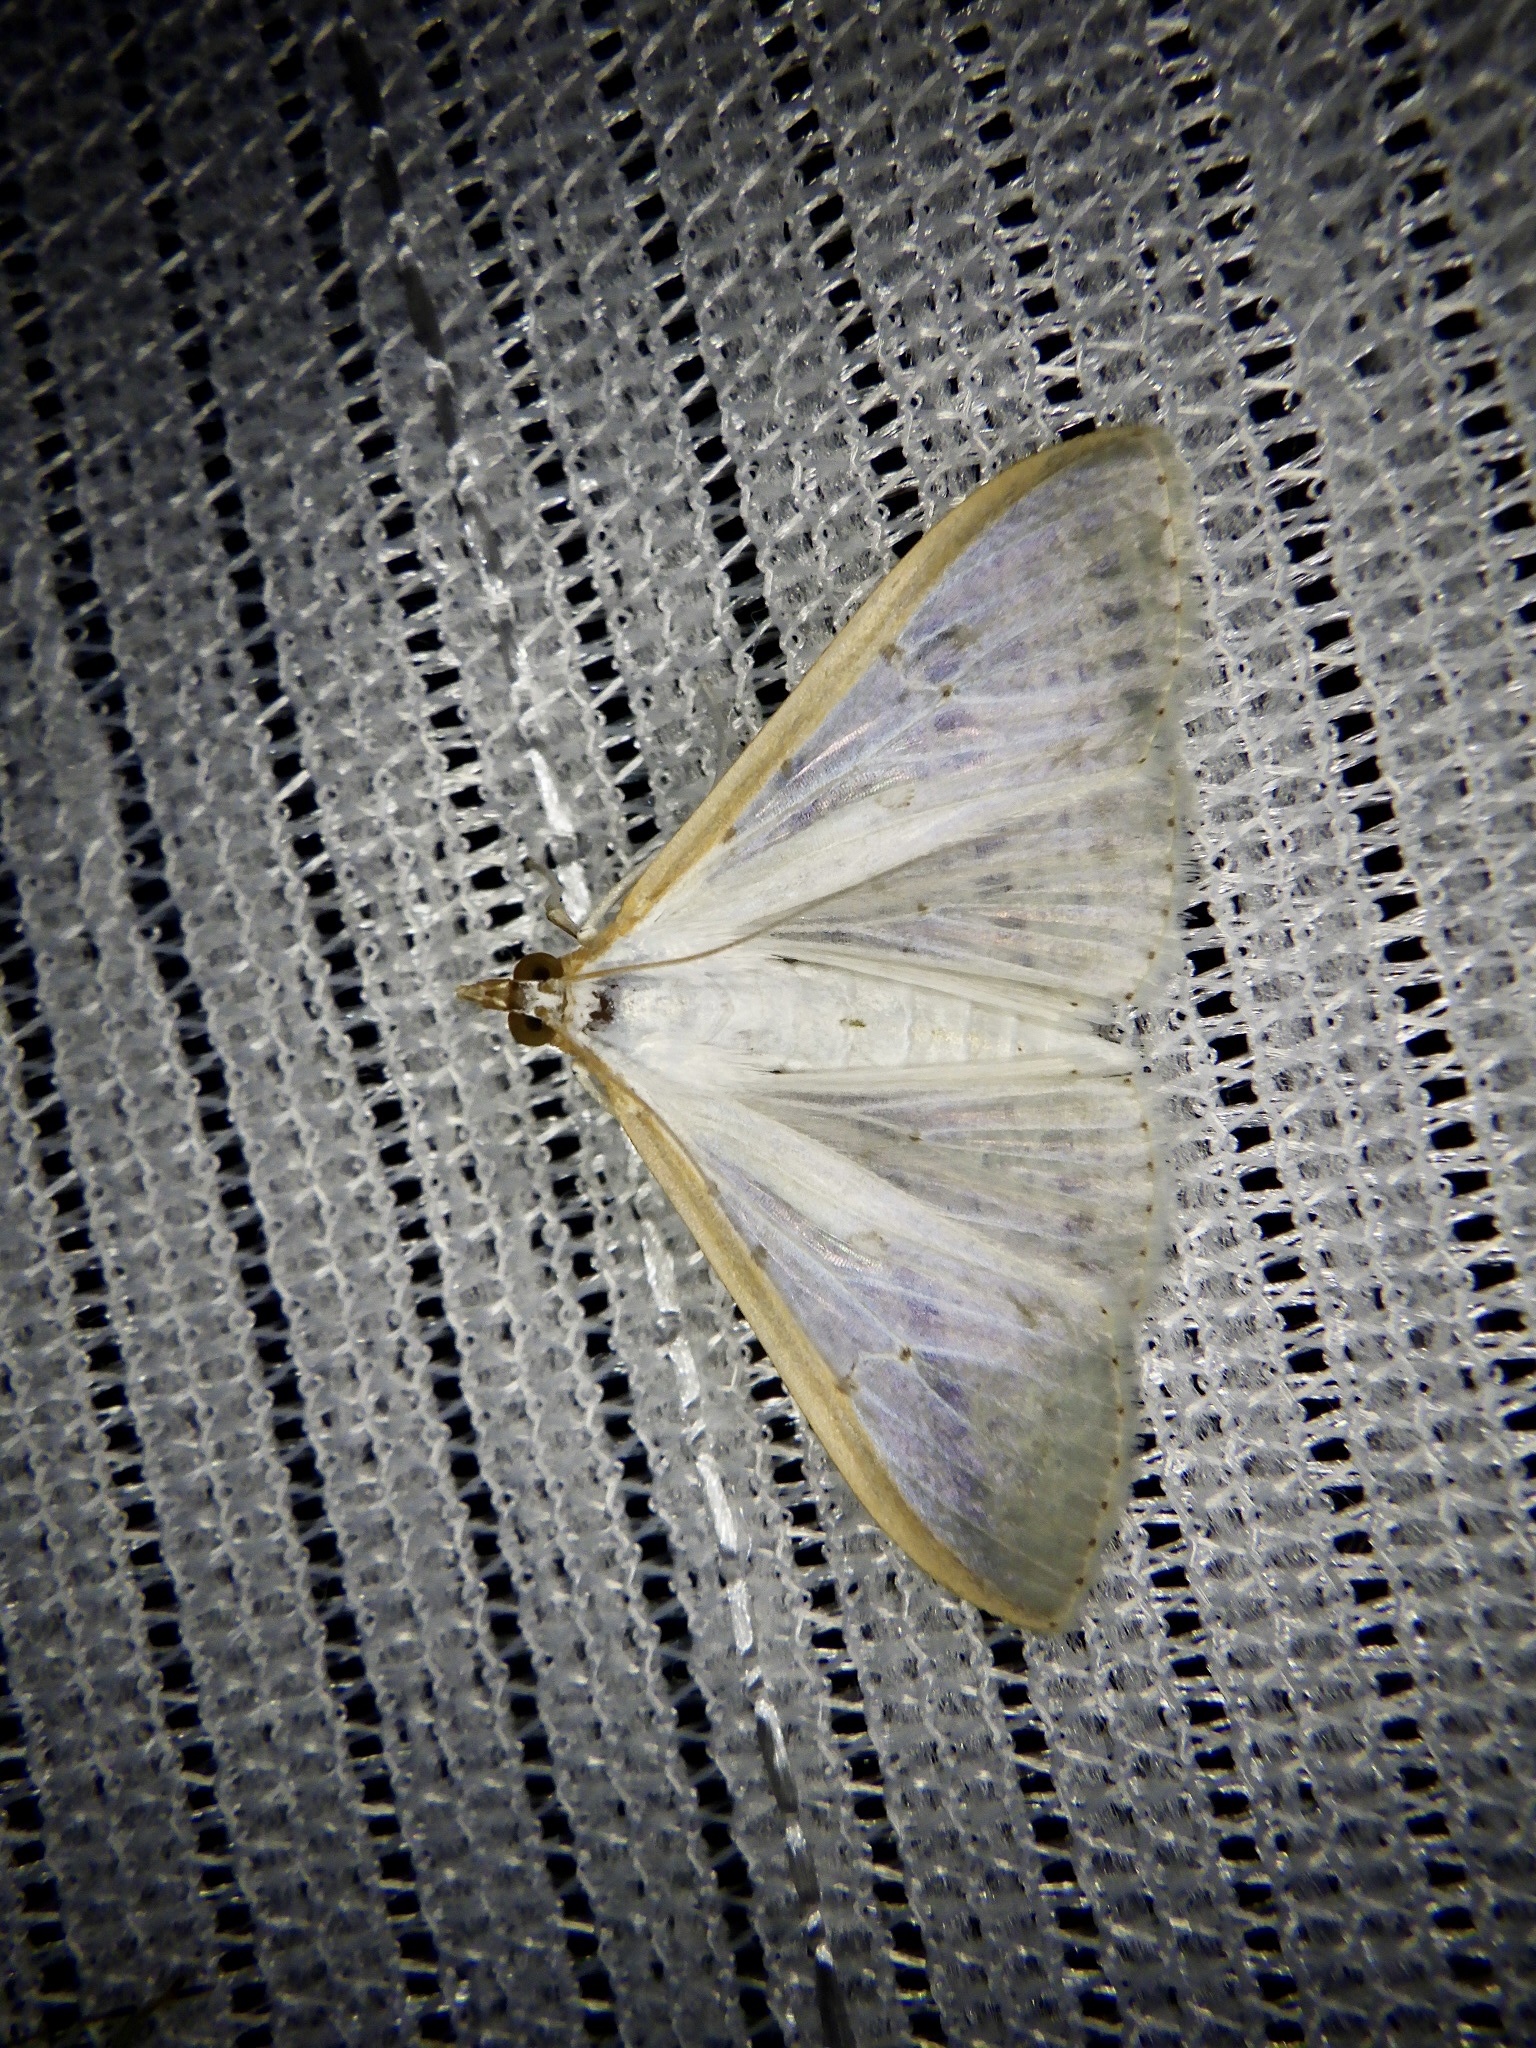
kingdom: Animalia
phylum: Arthropoda
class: Insecta
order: Lepidoptera
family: Crambidae
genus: Palpita
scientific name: Palpita nigropunctalis
